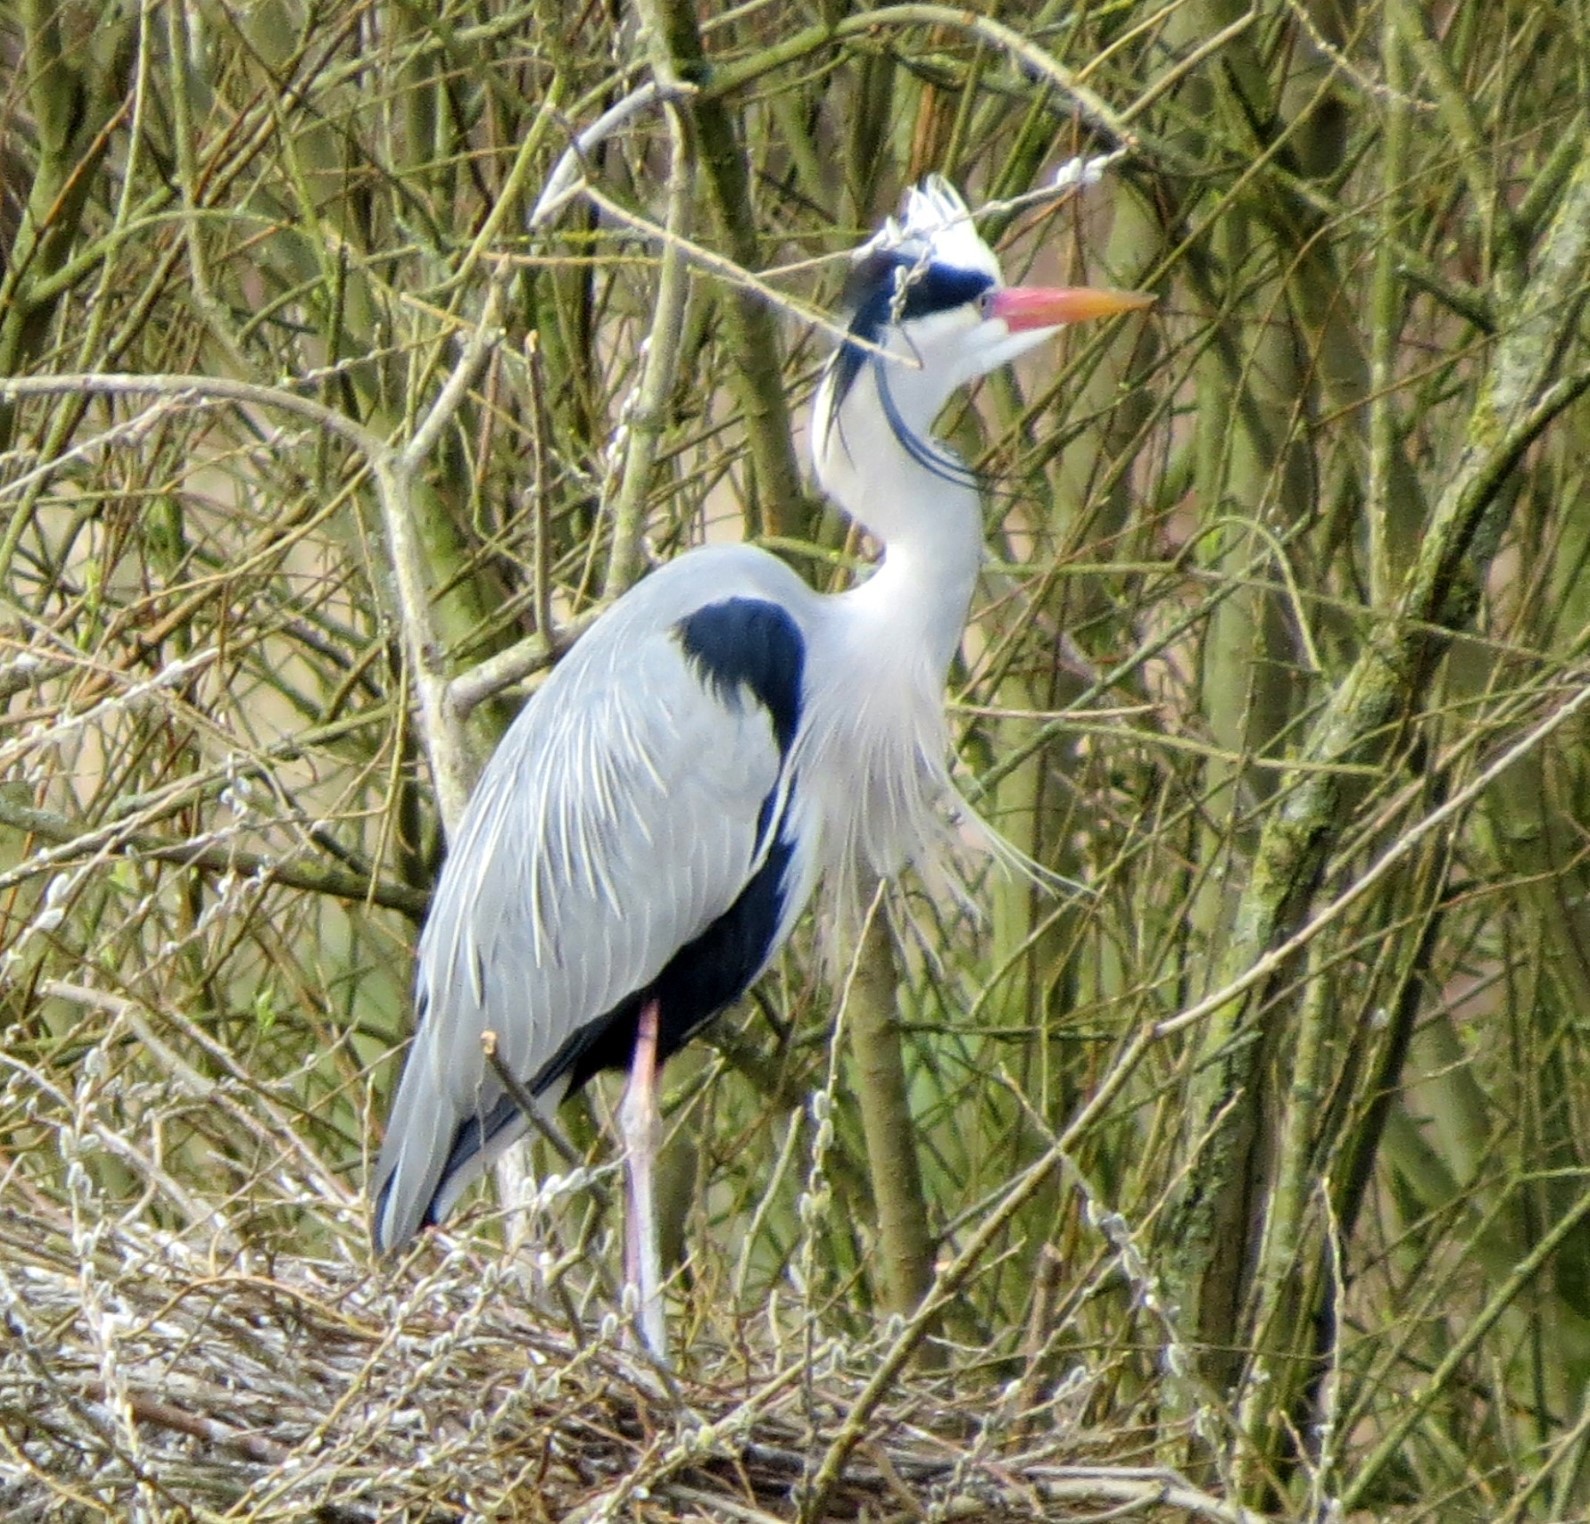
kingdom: Animalia
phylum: Chordata
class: Aves
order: Pelecaniformes
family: Ardeidae
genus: Ardea
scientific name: Ardea cinerea
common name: Grey heron
